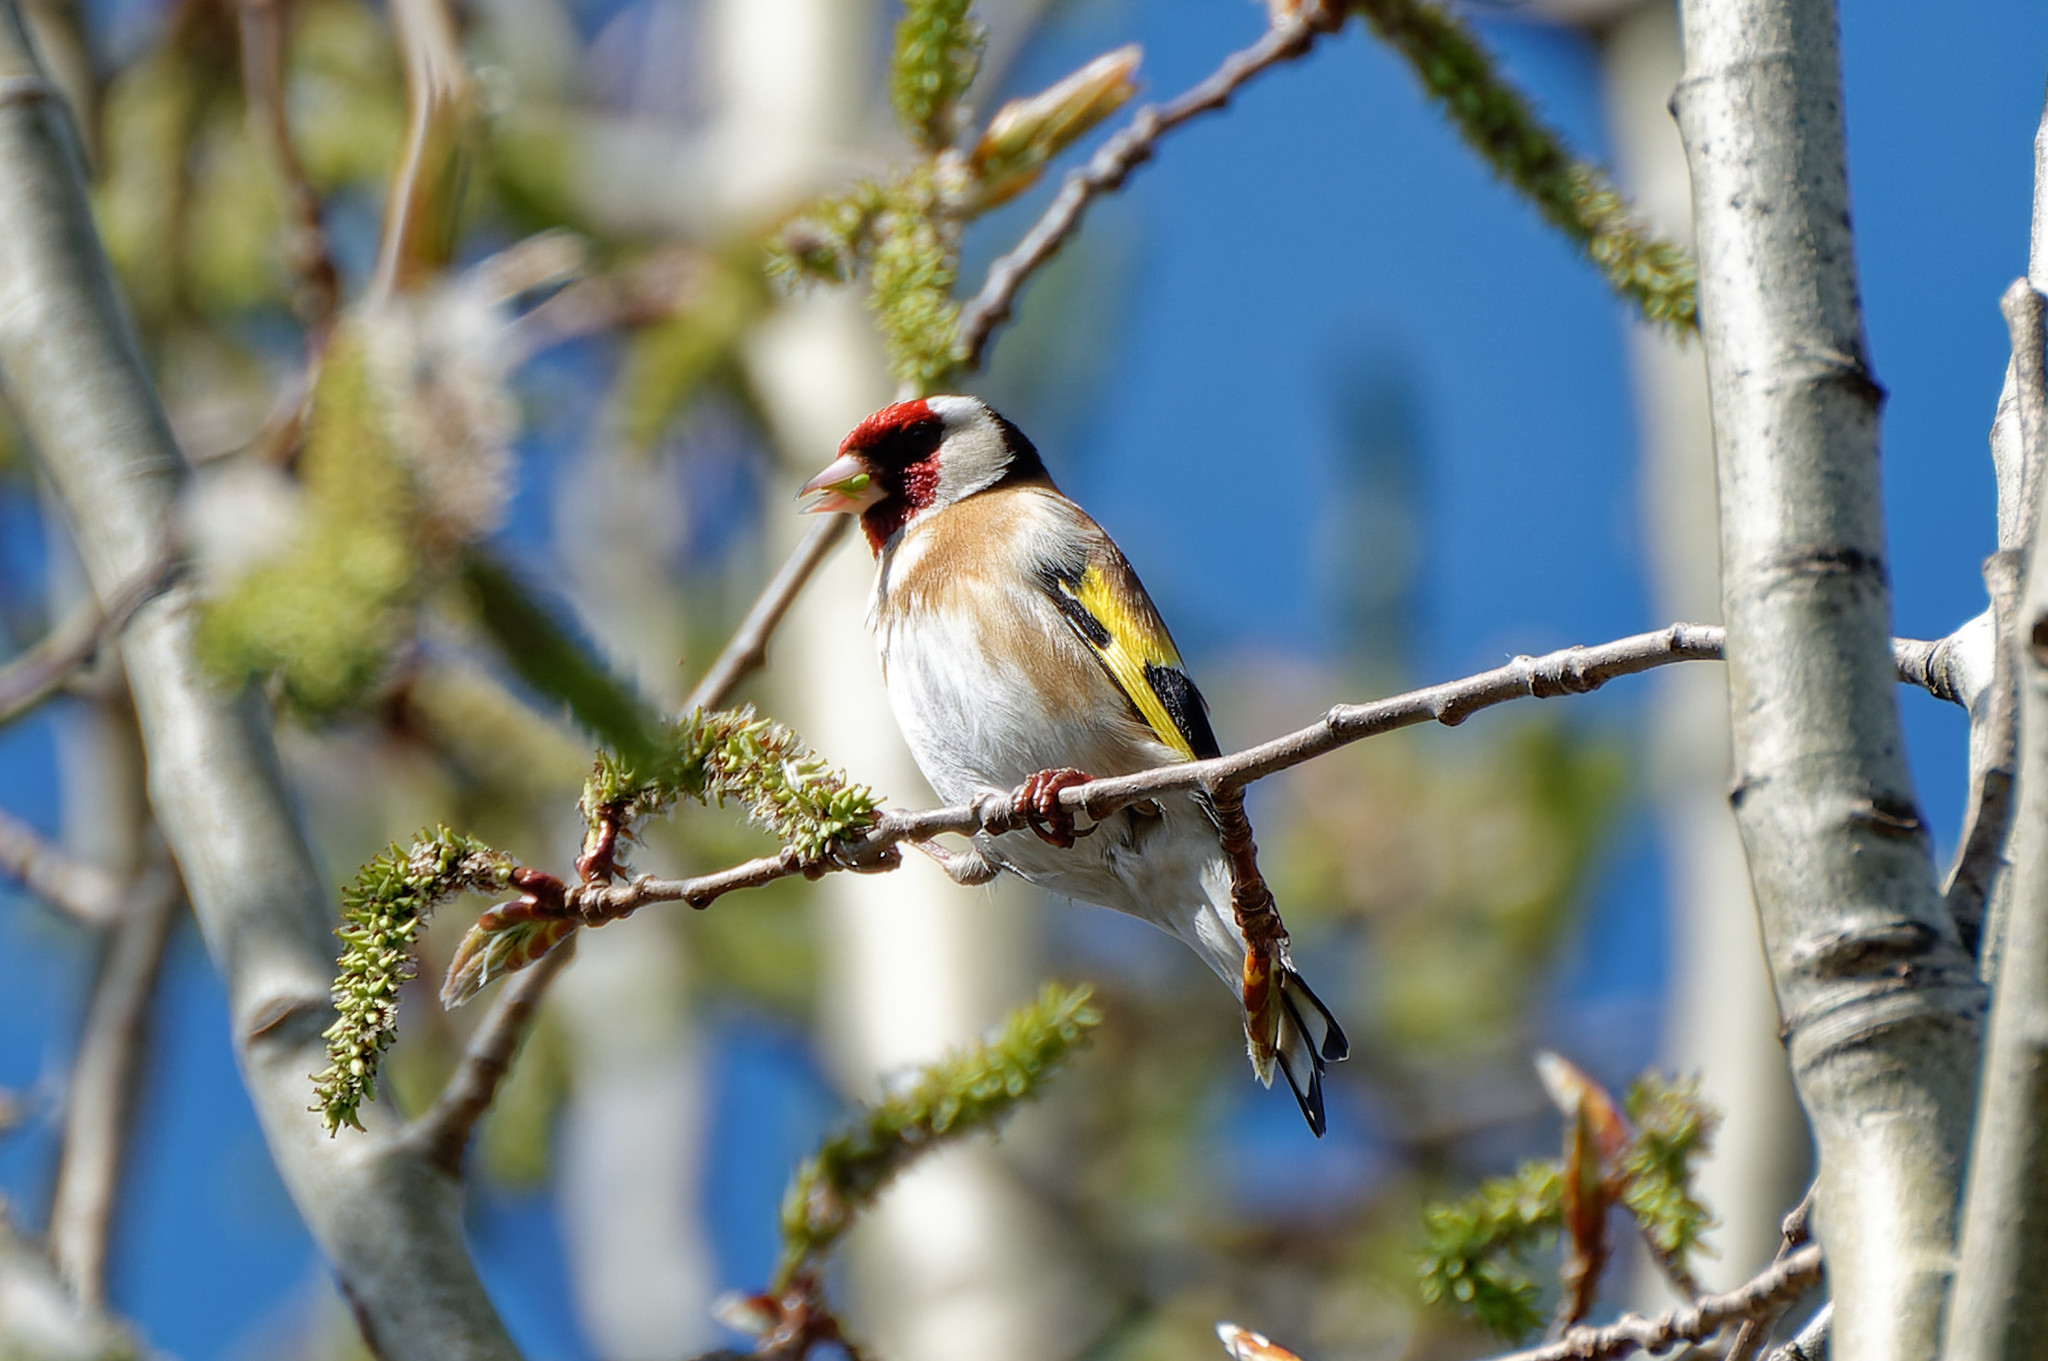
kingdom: Animalia
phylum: Chordata
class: Aves
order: Passeriformes
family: Fringillidae
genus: Carduelis
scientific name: Carduelis carduelis
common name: European goldfinch
